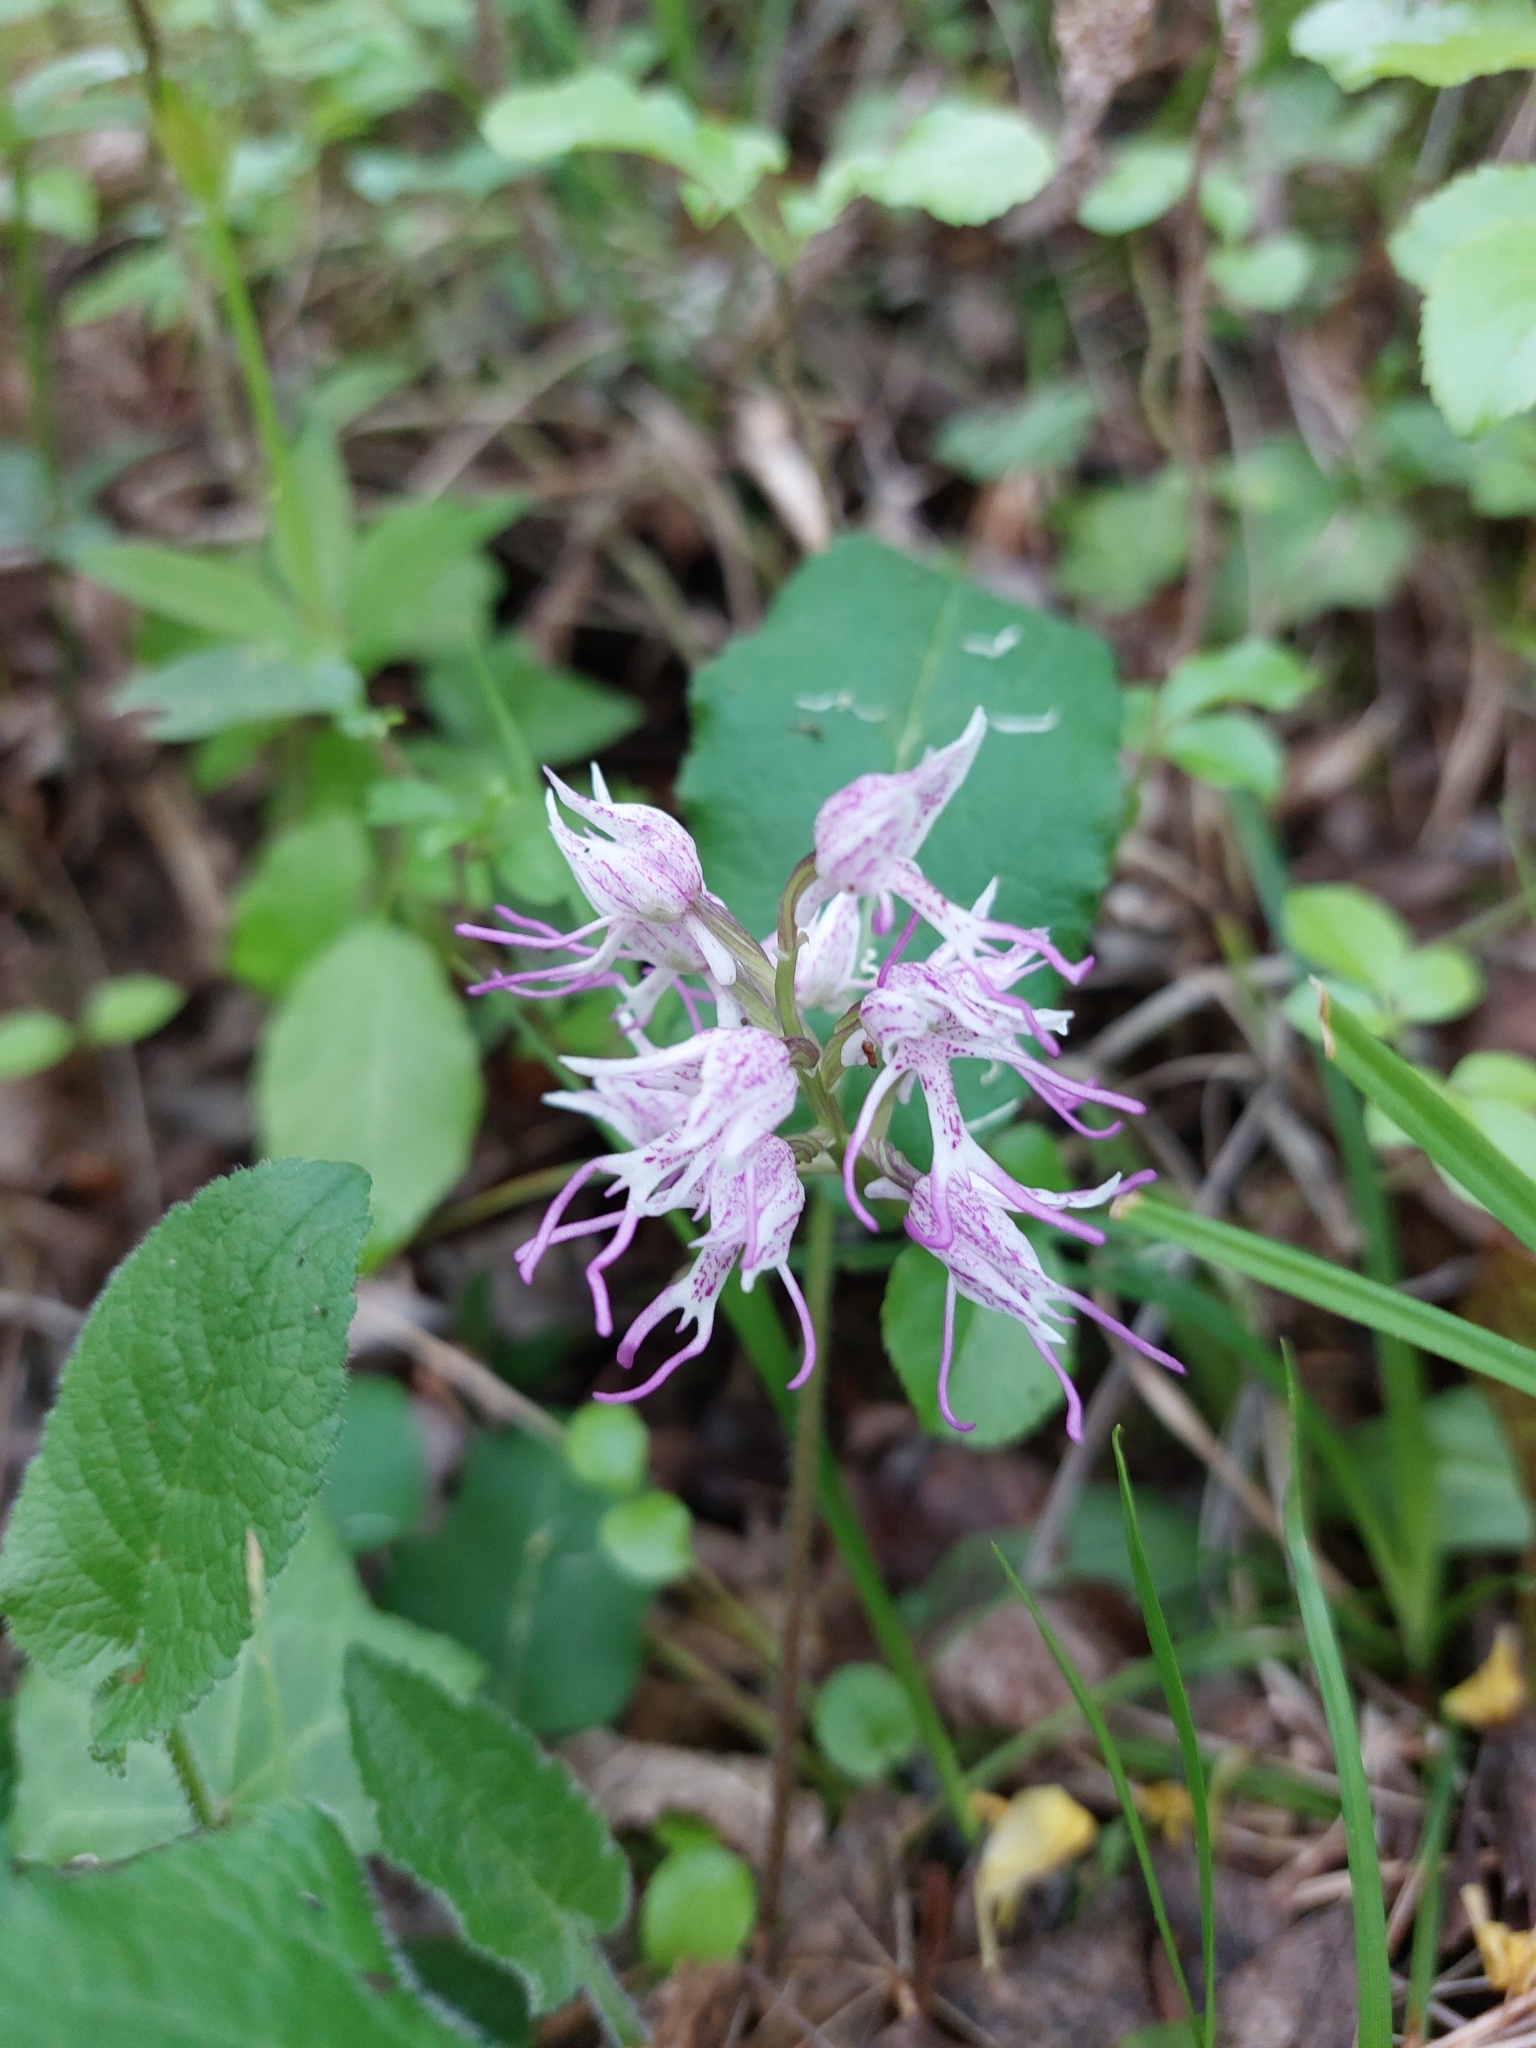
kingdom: Plantae
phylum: Tracheophyta
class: Liliopsida
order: Asparagales
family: Orchidaceae
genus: Orchis
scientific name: Orchis simia
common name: Monkey orchid
